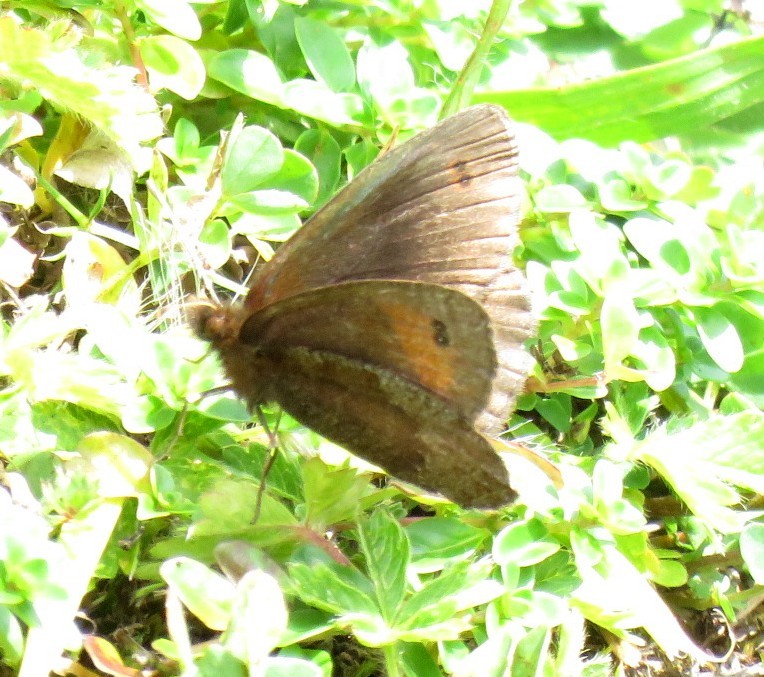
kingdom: Animalia
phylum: Arthropoda
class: Insecta
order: Lepidoptera
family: Nymphalidae
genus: Erebia
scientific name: Erebia pronoe
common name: Water ringlet
